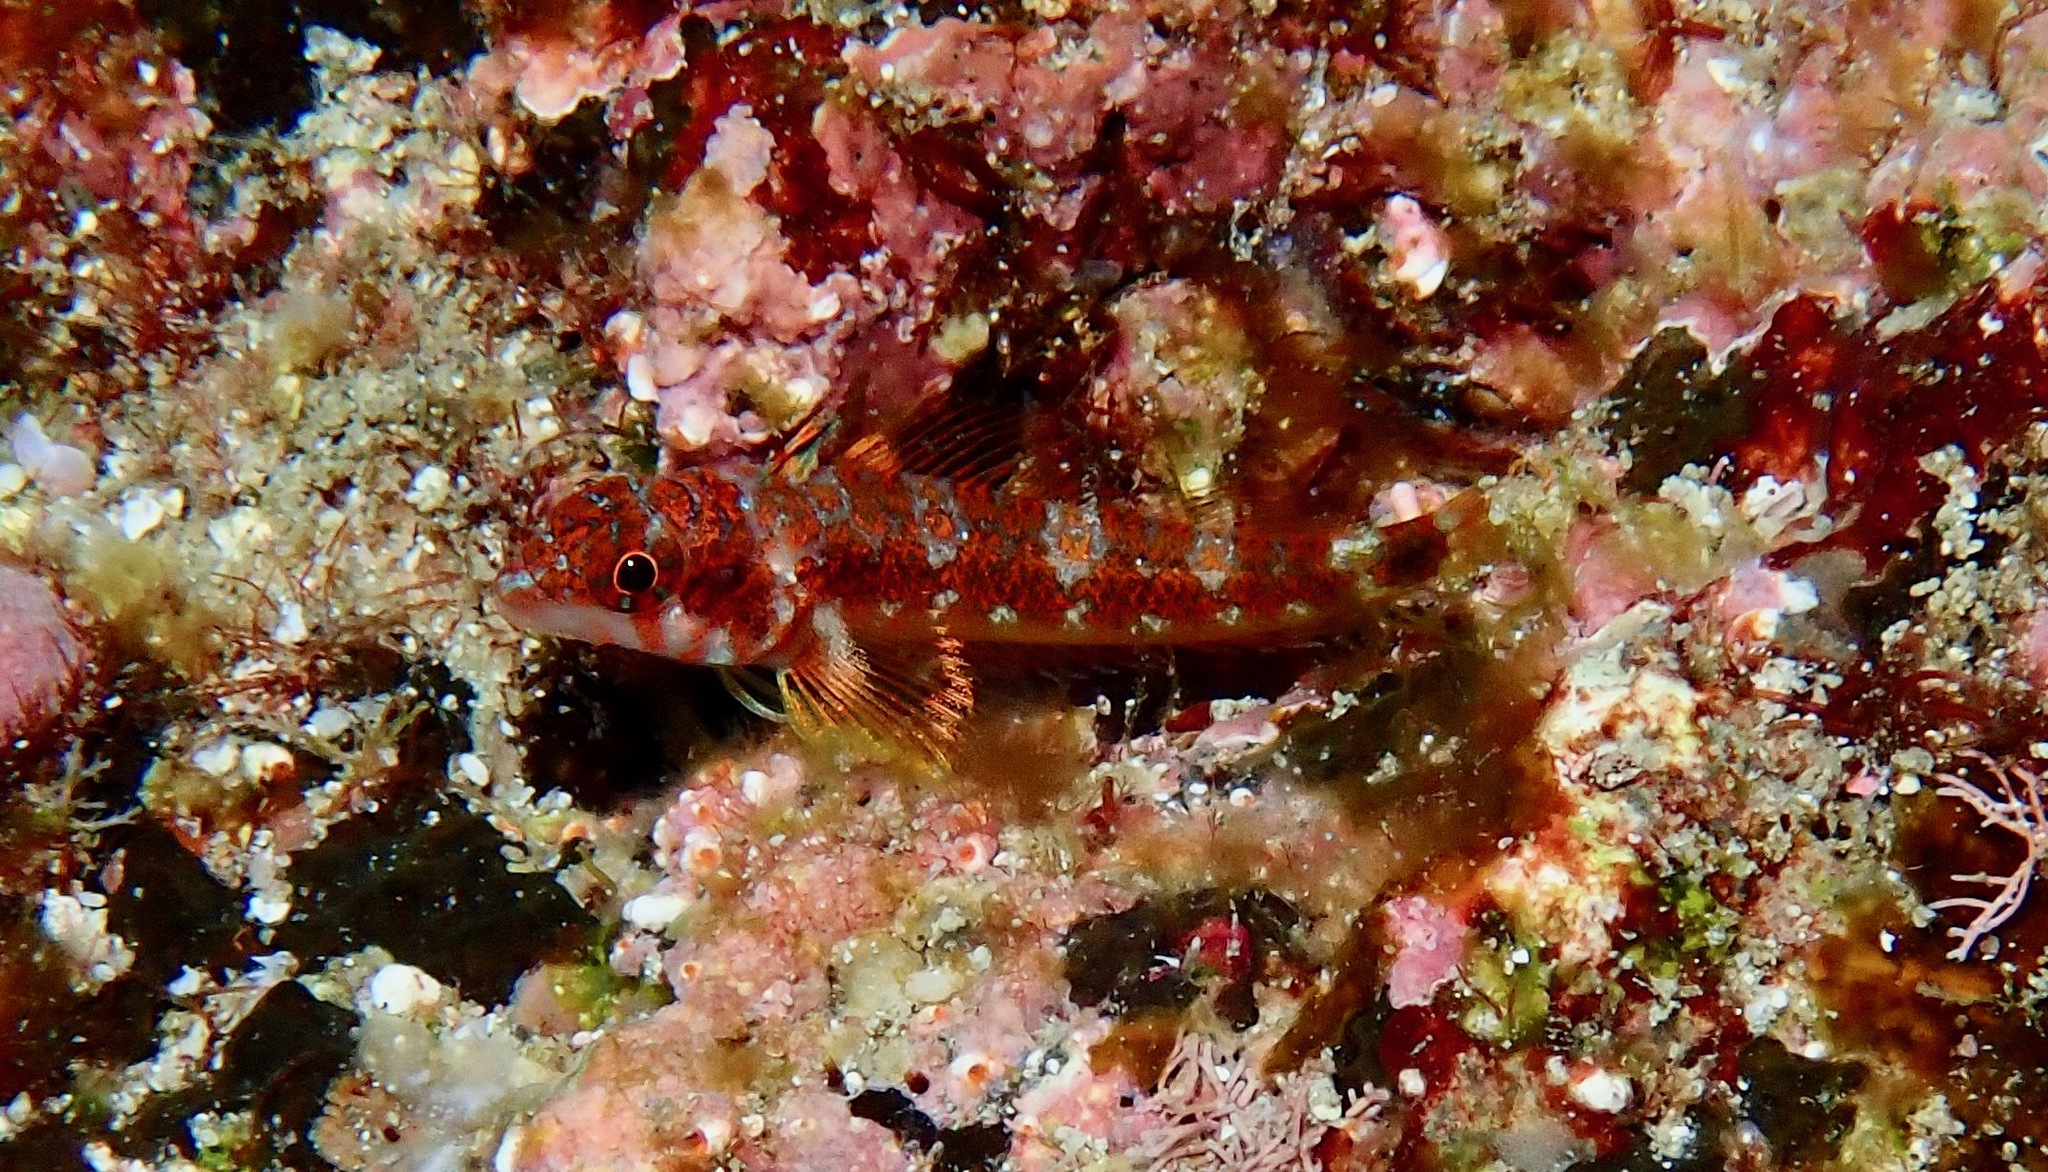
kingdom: Animalia
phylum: Chordata
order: Perciformes
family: Tripterygiidae
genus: Lepidonectes
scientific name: Lepidonectes corallicola
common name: Galapagos triplefin blenny
